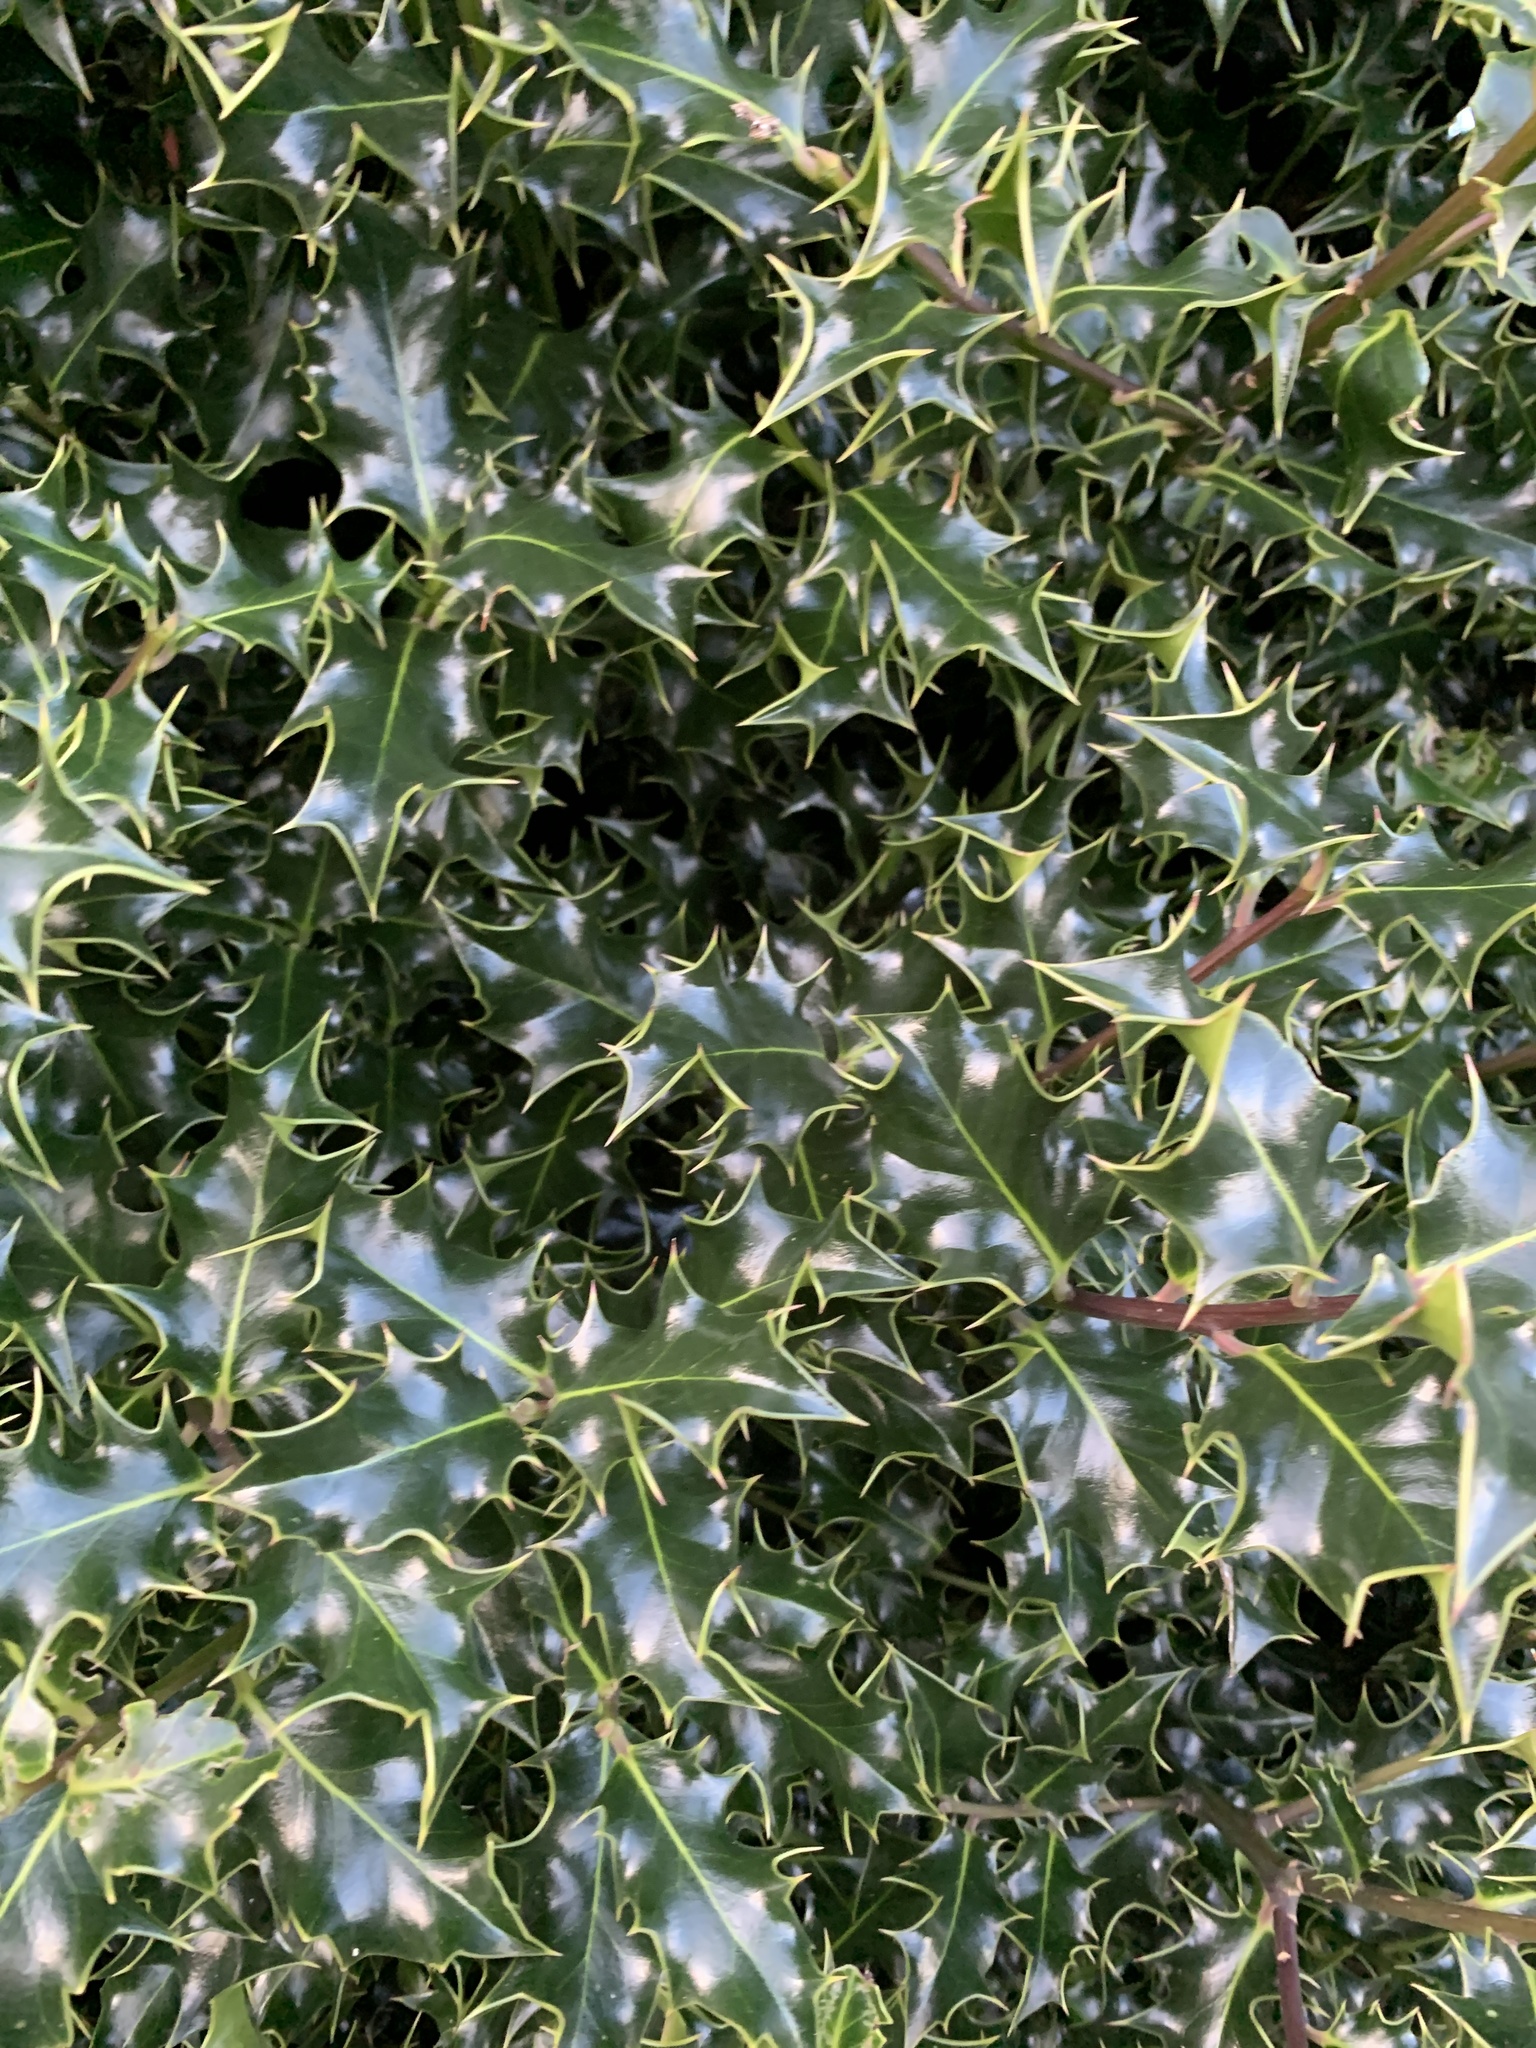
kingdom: Plantae
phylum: Tracheophyta
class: Magnoliopsida
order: Aquifoliales
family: Aquifoliaceae
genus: Ilex
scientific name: Ilex aquifolium
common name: English holly
